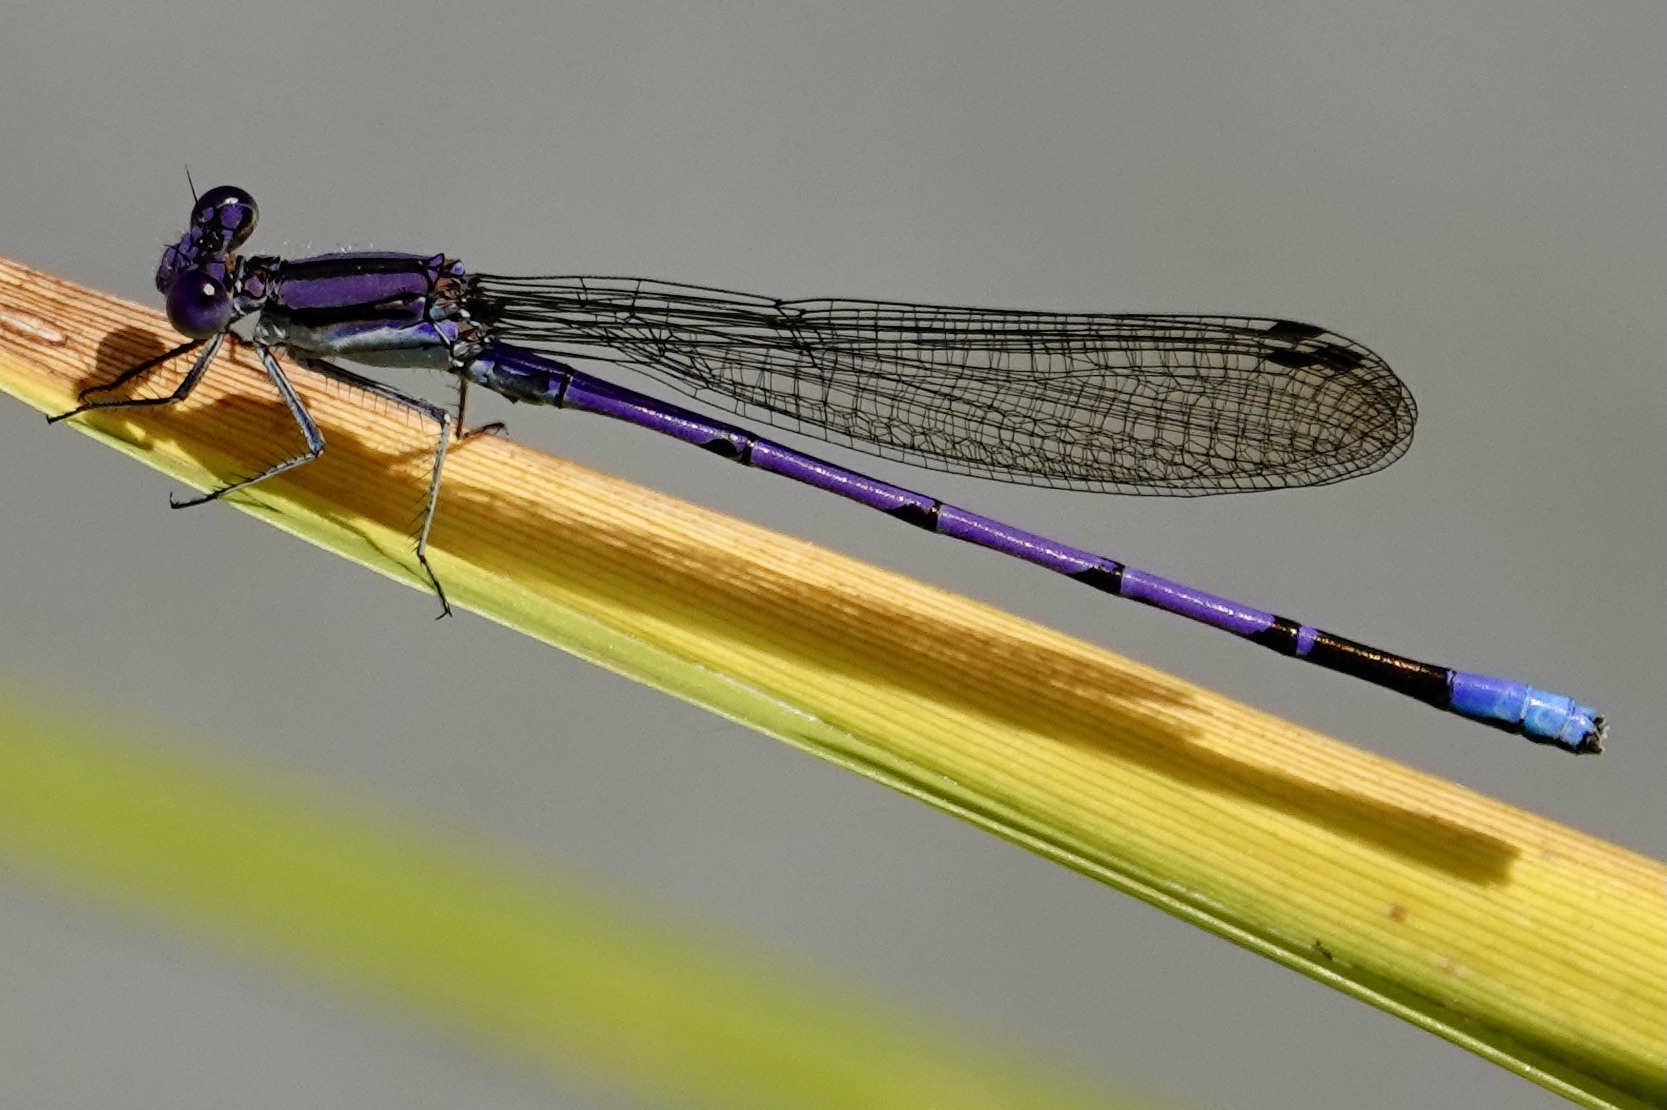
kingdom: Animalia
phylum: Arthropoda
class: Insecta
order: Odonata
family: Coenagrionidae
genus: Argia
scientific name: Argia fumipennis
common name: Variable dancer
